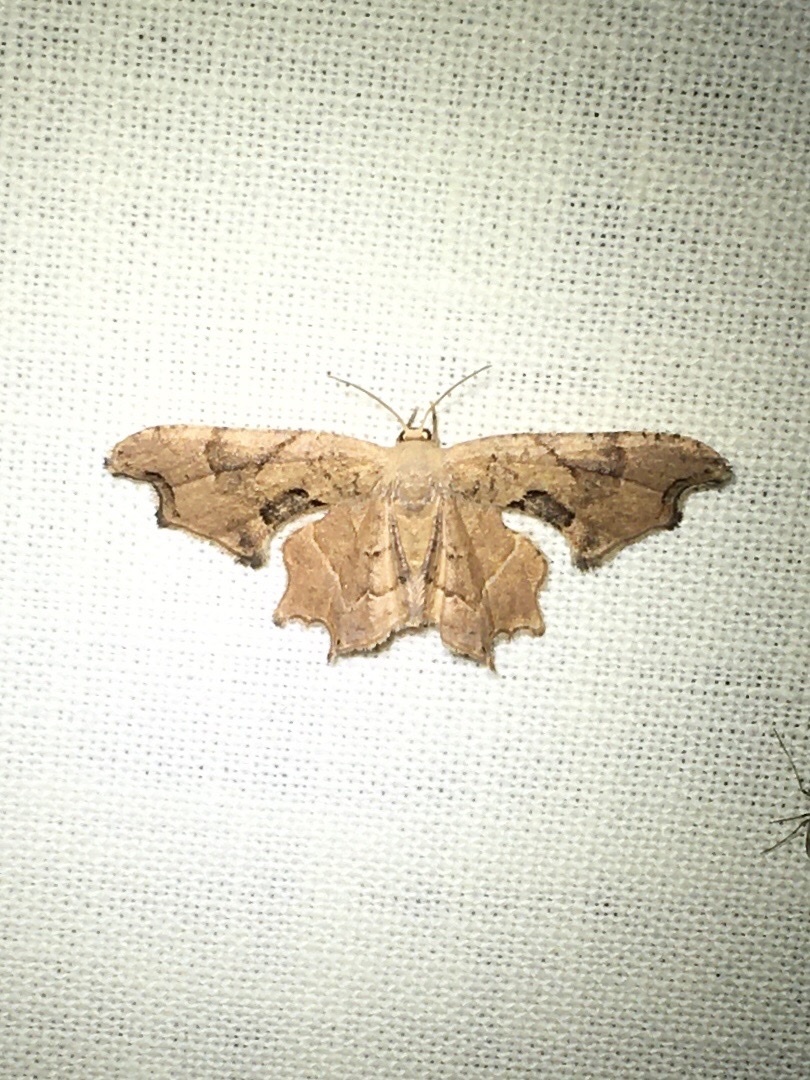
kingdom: Animalia
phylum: Arthropoda
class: Insecta
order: Lepidoptera
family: Uraniidae
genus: Epiplema
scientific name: Epiplema Calledapteryx dryopterata
